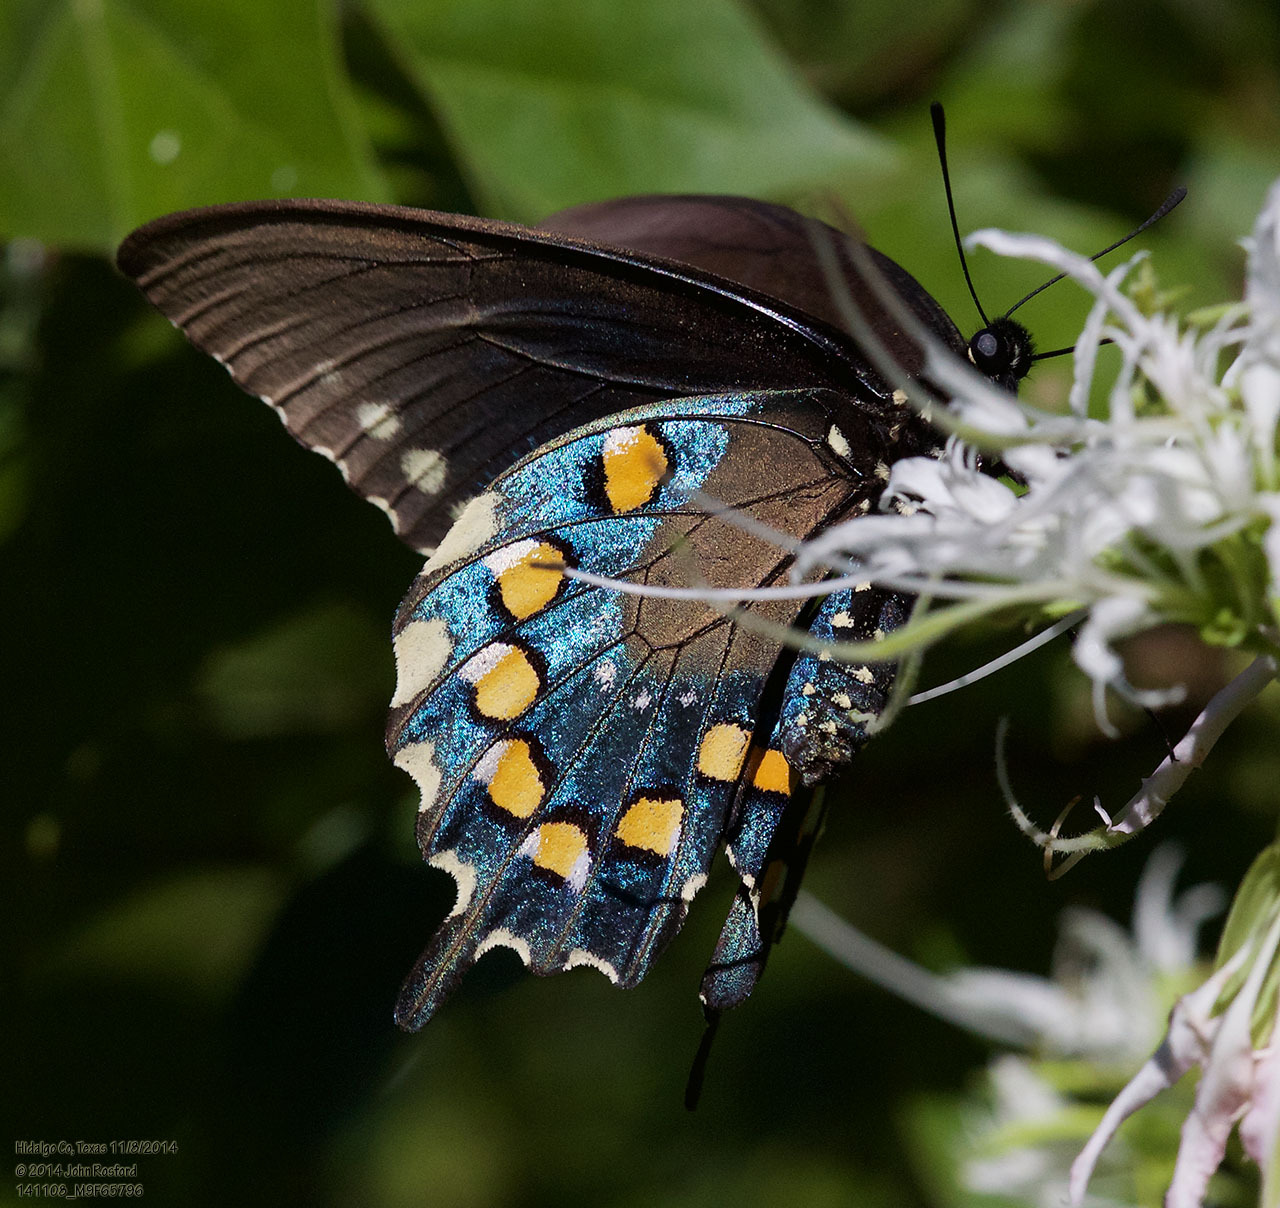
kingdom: Animalia
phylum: Arthropoda
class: Insecta
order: Lepidoptera
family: Papilionidae
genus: Battus
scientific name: Battus philenor
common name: Pipevine swallowtail
